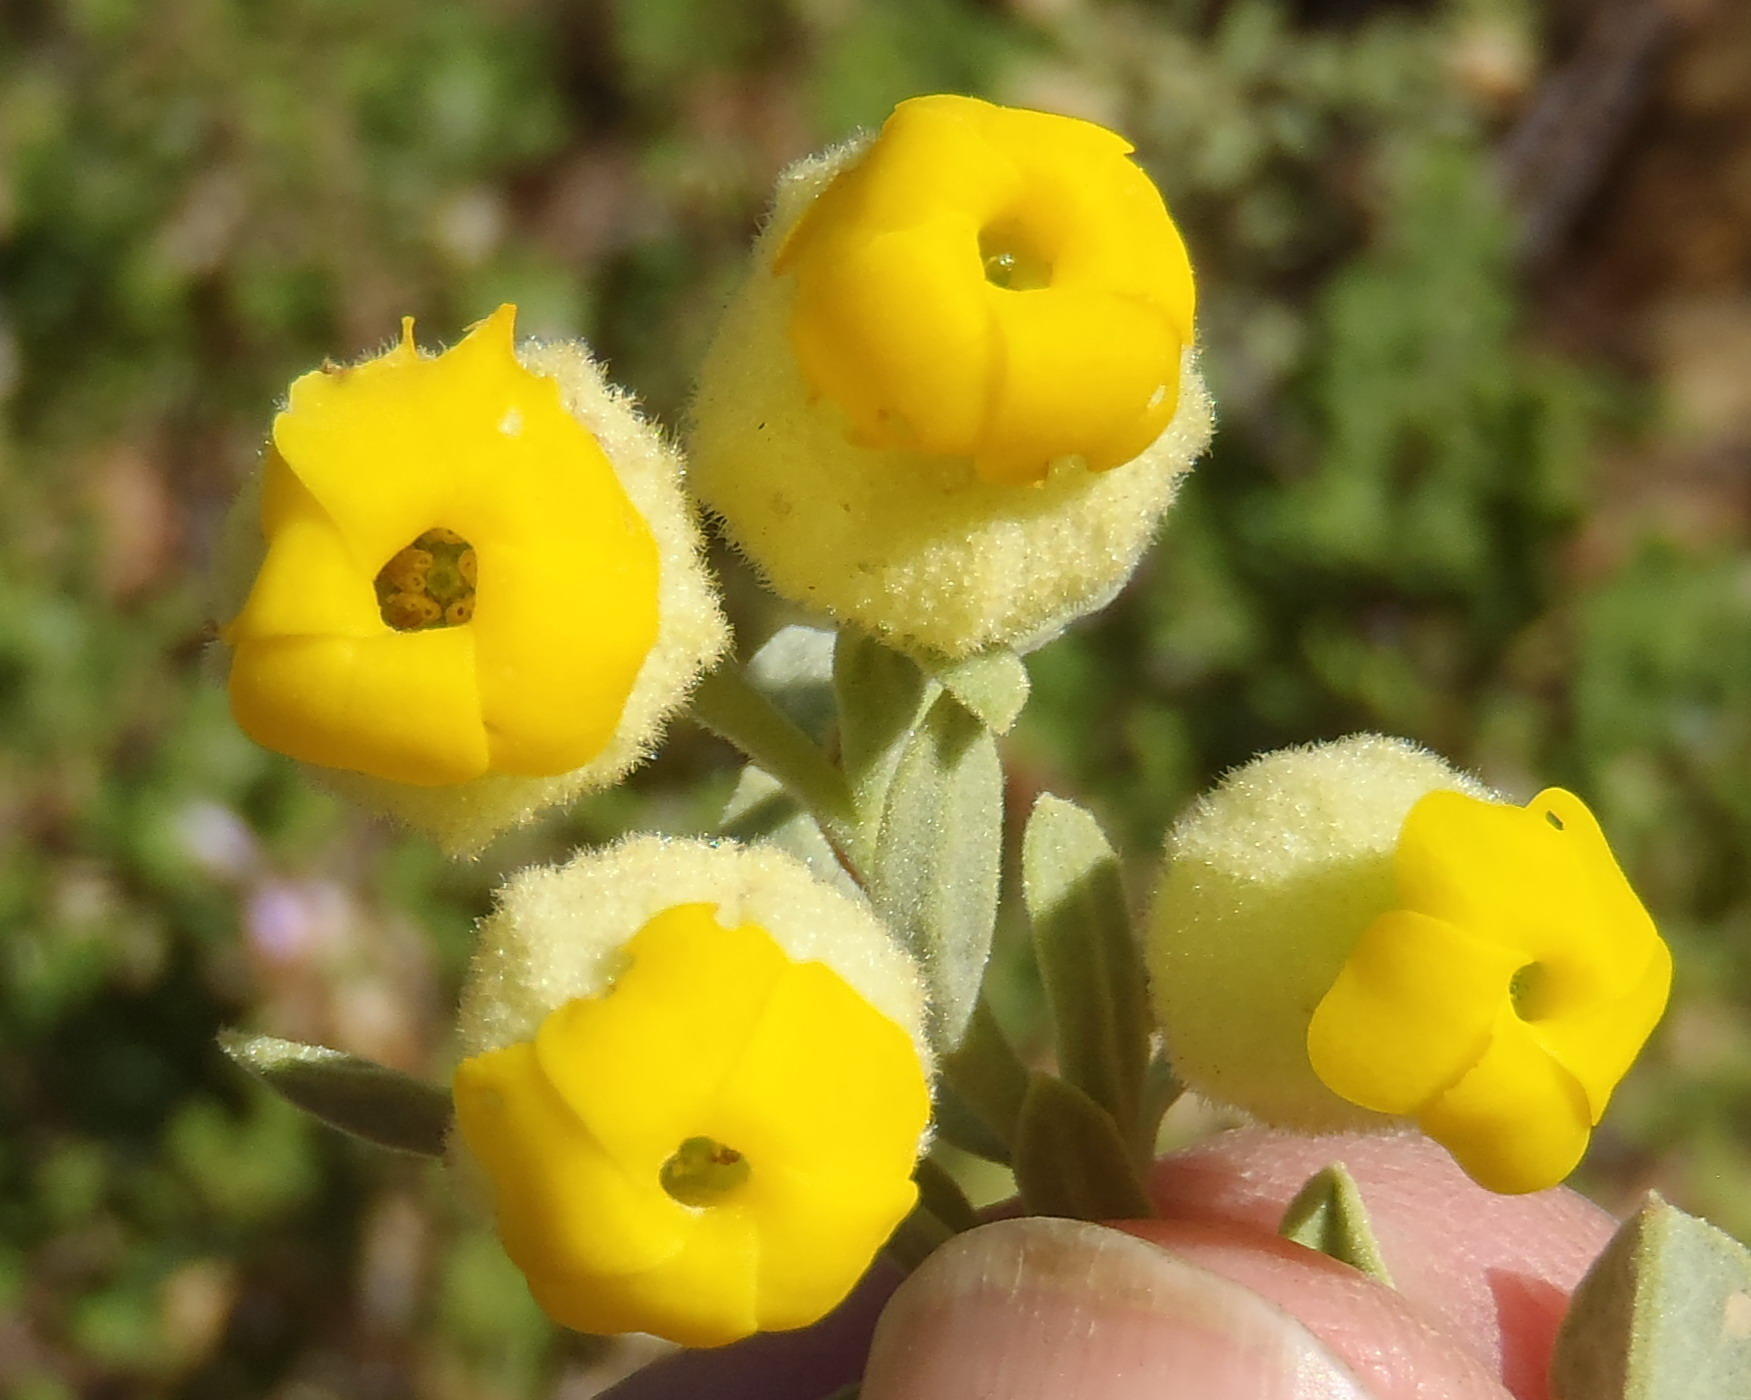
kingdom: Plantae
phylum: Tracheophyta
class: Magnoliopsida
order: Malvales
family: Malvaceae
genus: Hermannia
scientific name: Hermannia mucronulata
